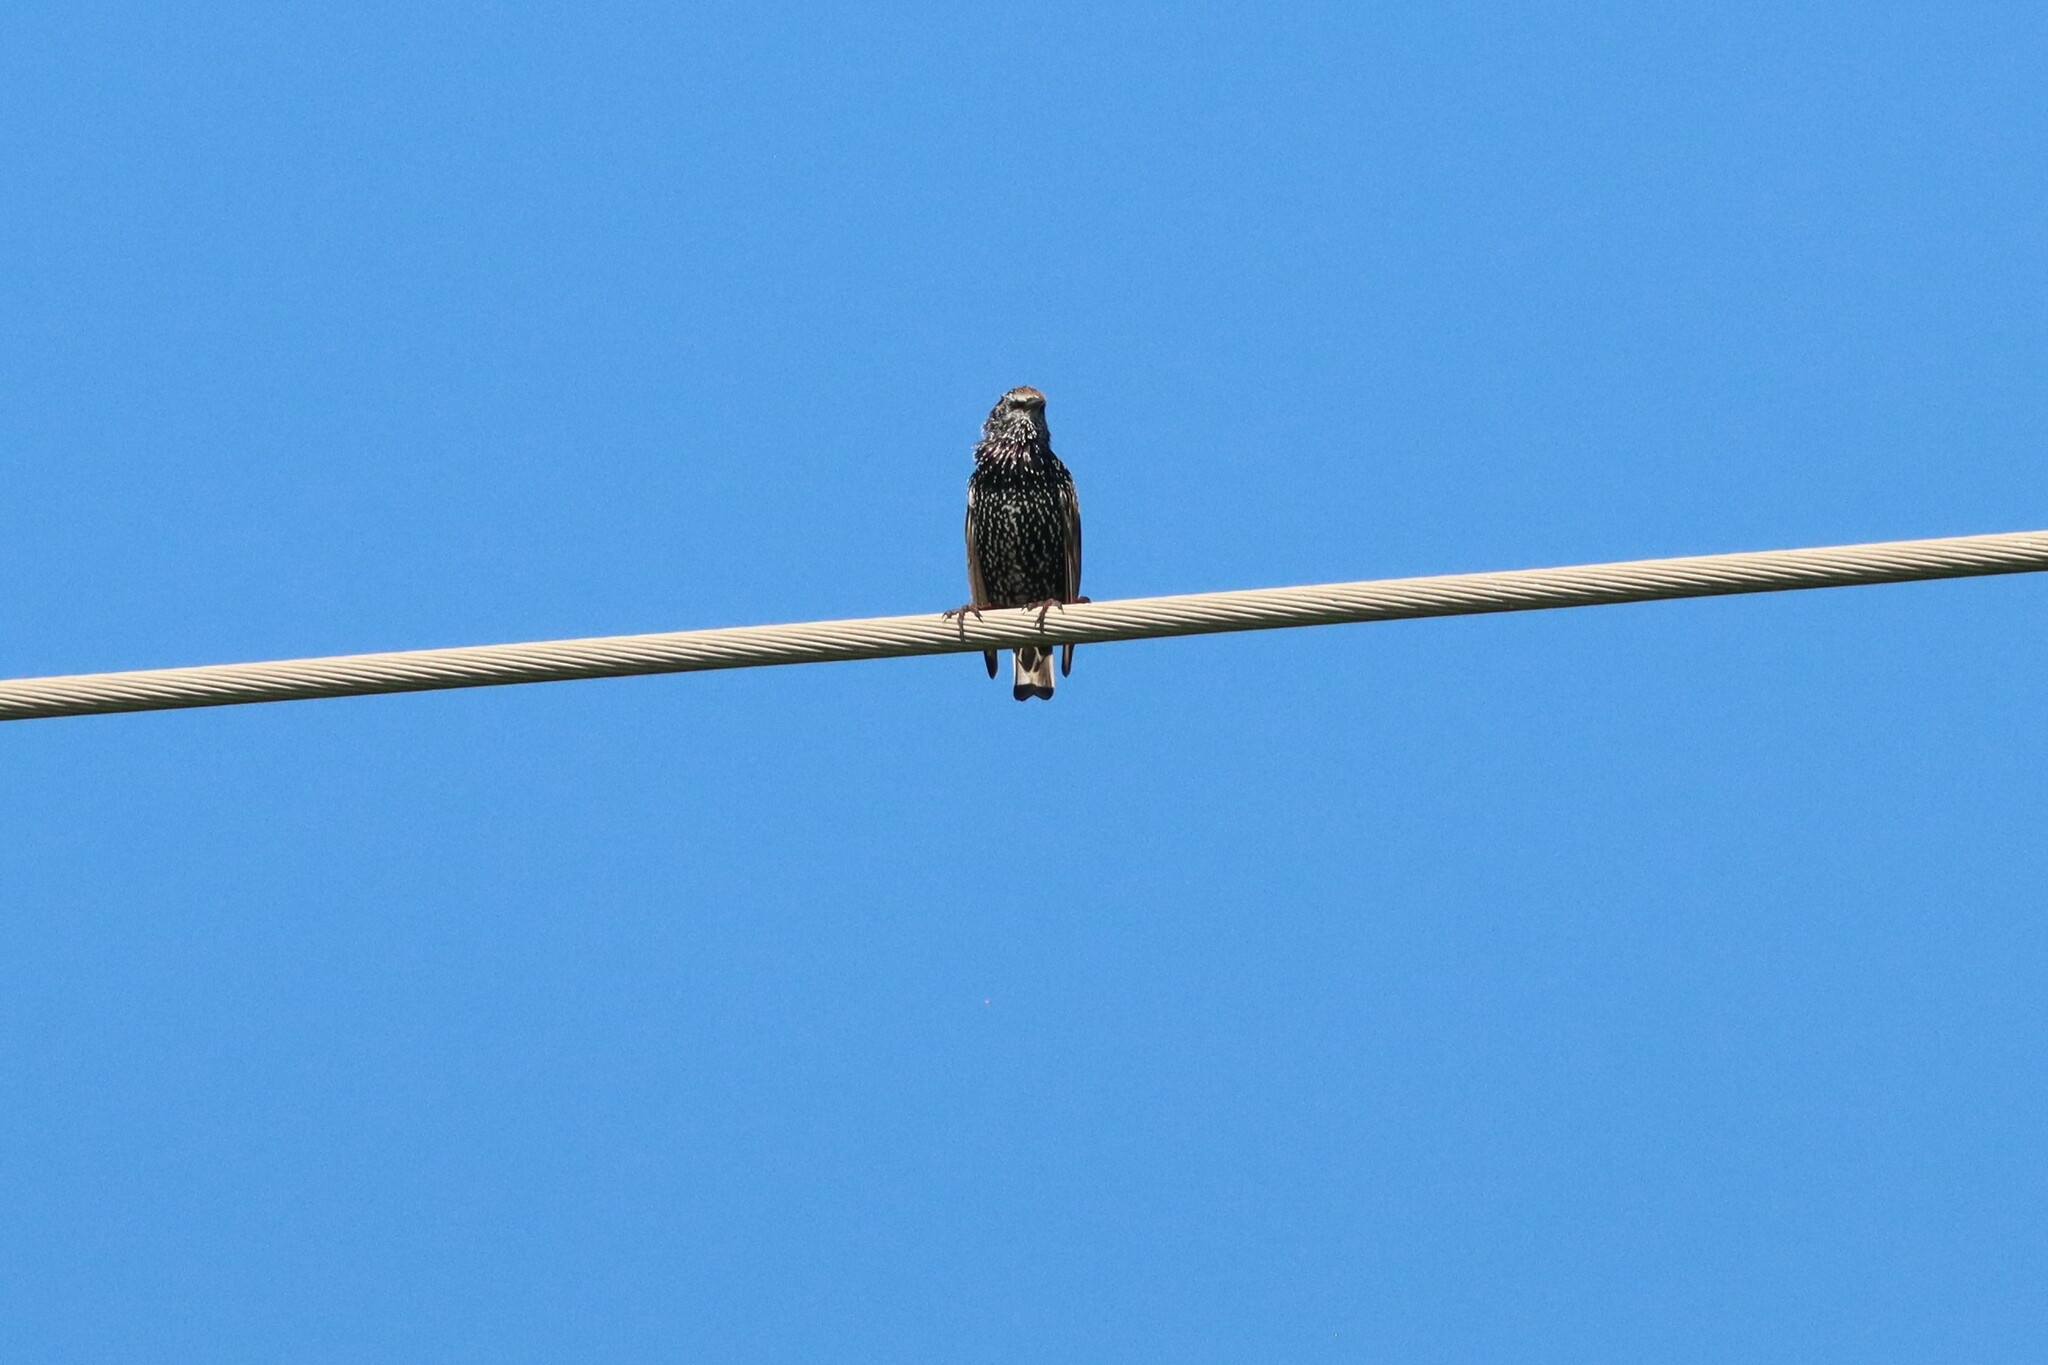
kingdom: Animalia
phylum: Chordata
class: Aves
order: Passeriformes
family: Sturnidae
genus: Sturnus
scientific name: Sturnus vulgaris
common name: Common starling
